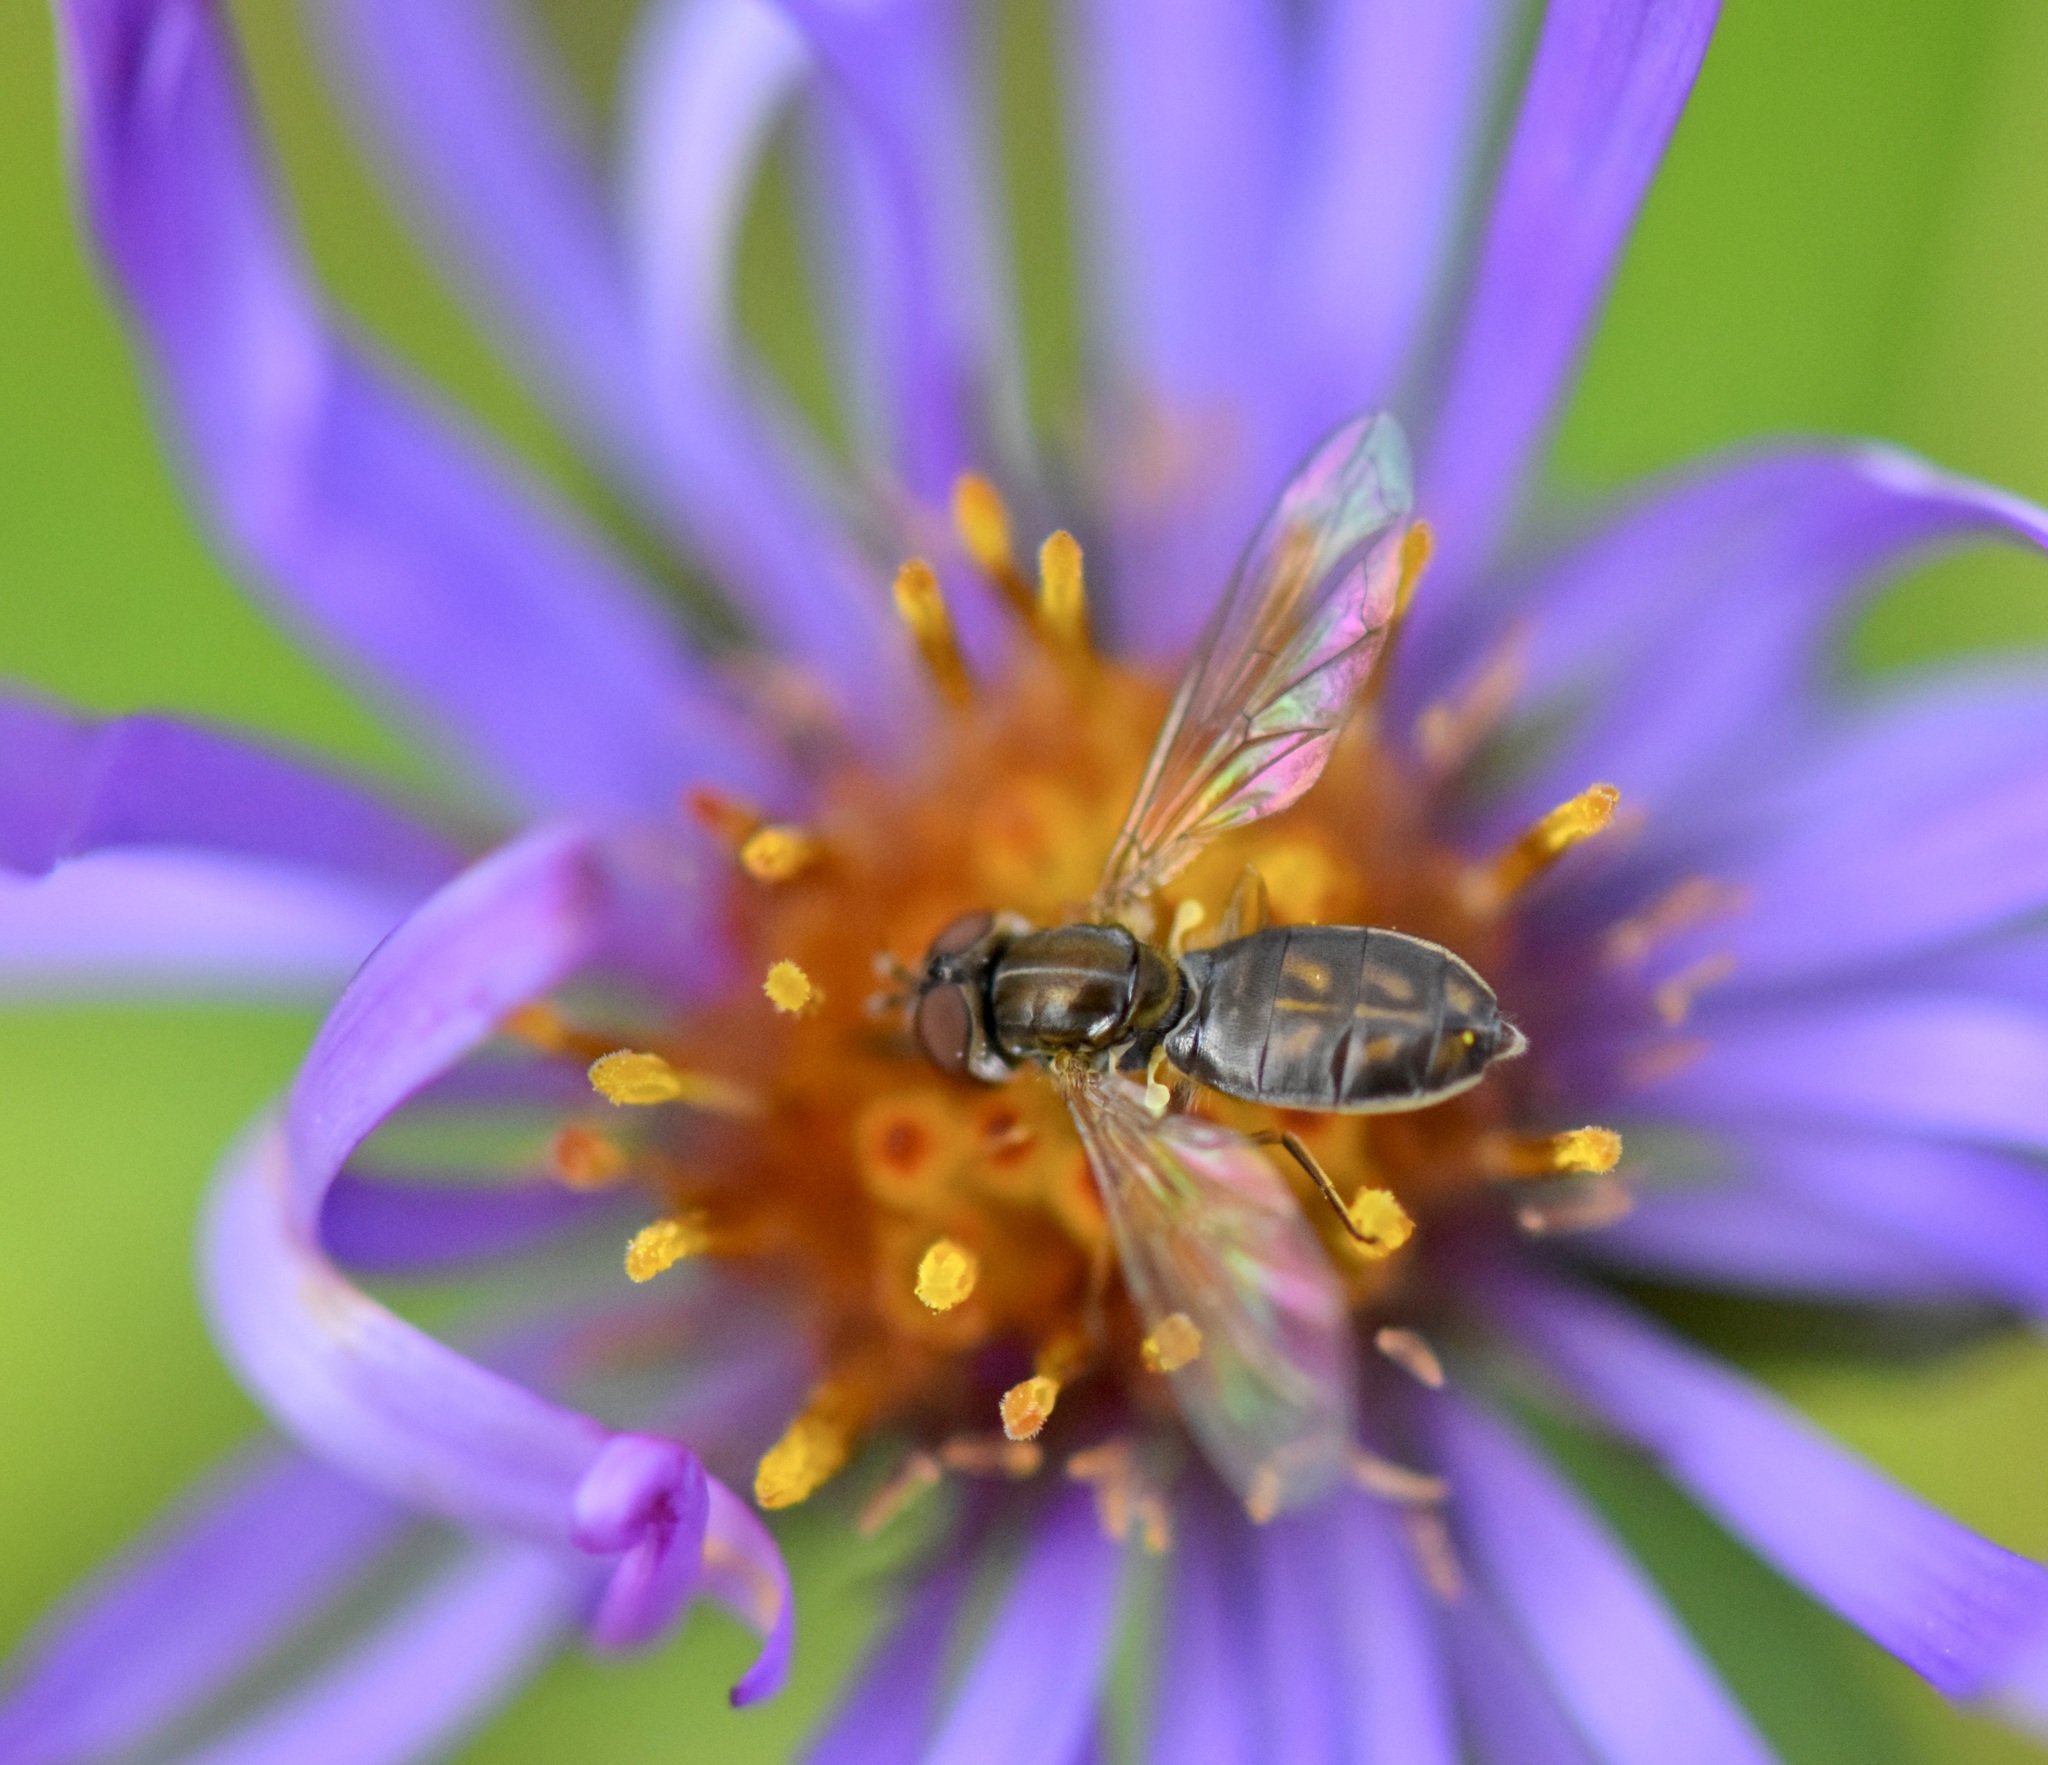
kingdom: Animalia
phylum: Arthropoda
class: Insecta
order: Diptera
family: Syrphidae
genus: Toxomerus
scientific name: Toxomerus marginatus
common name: Syrphid fly
